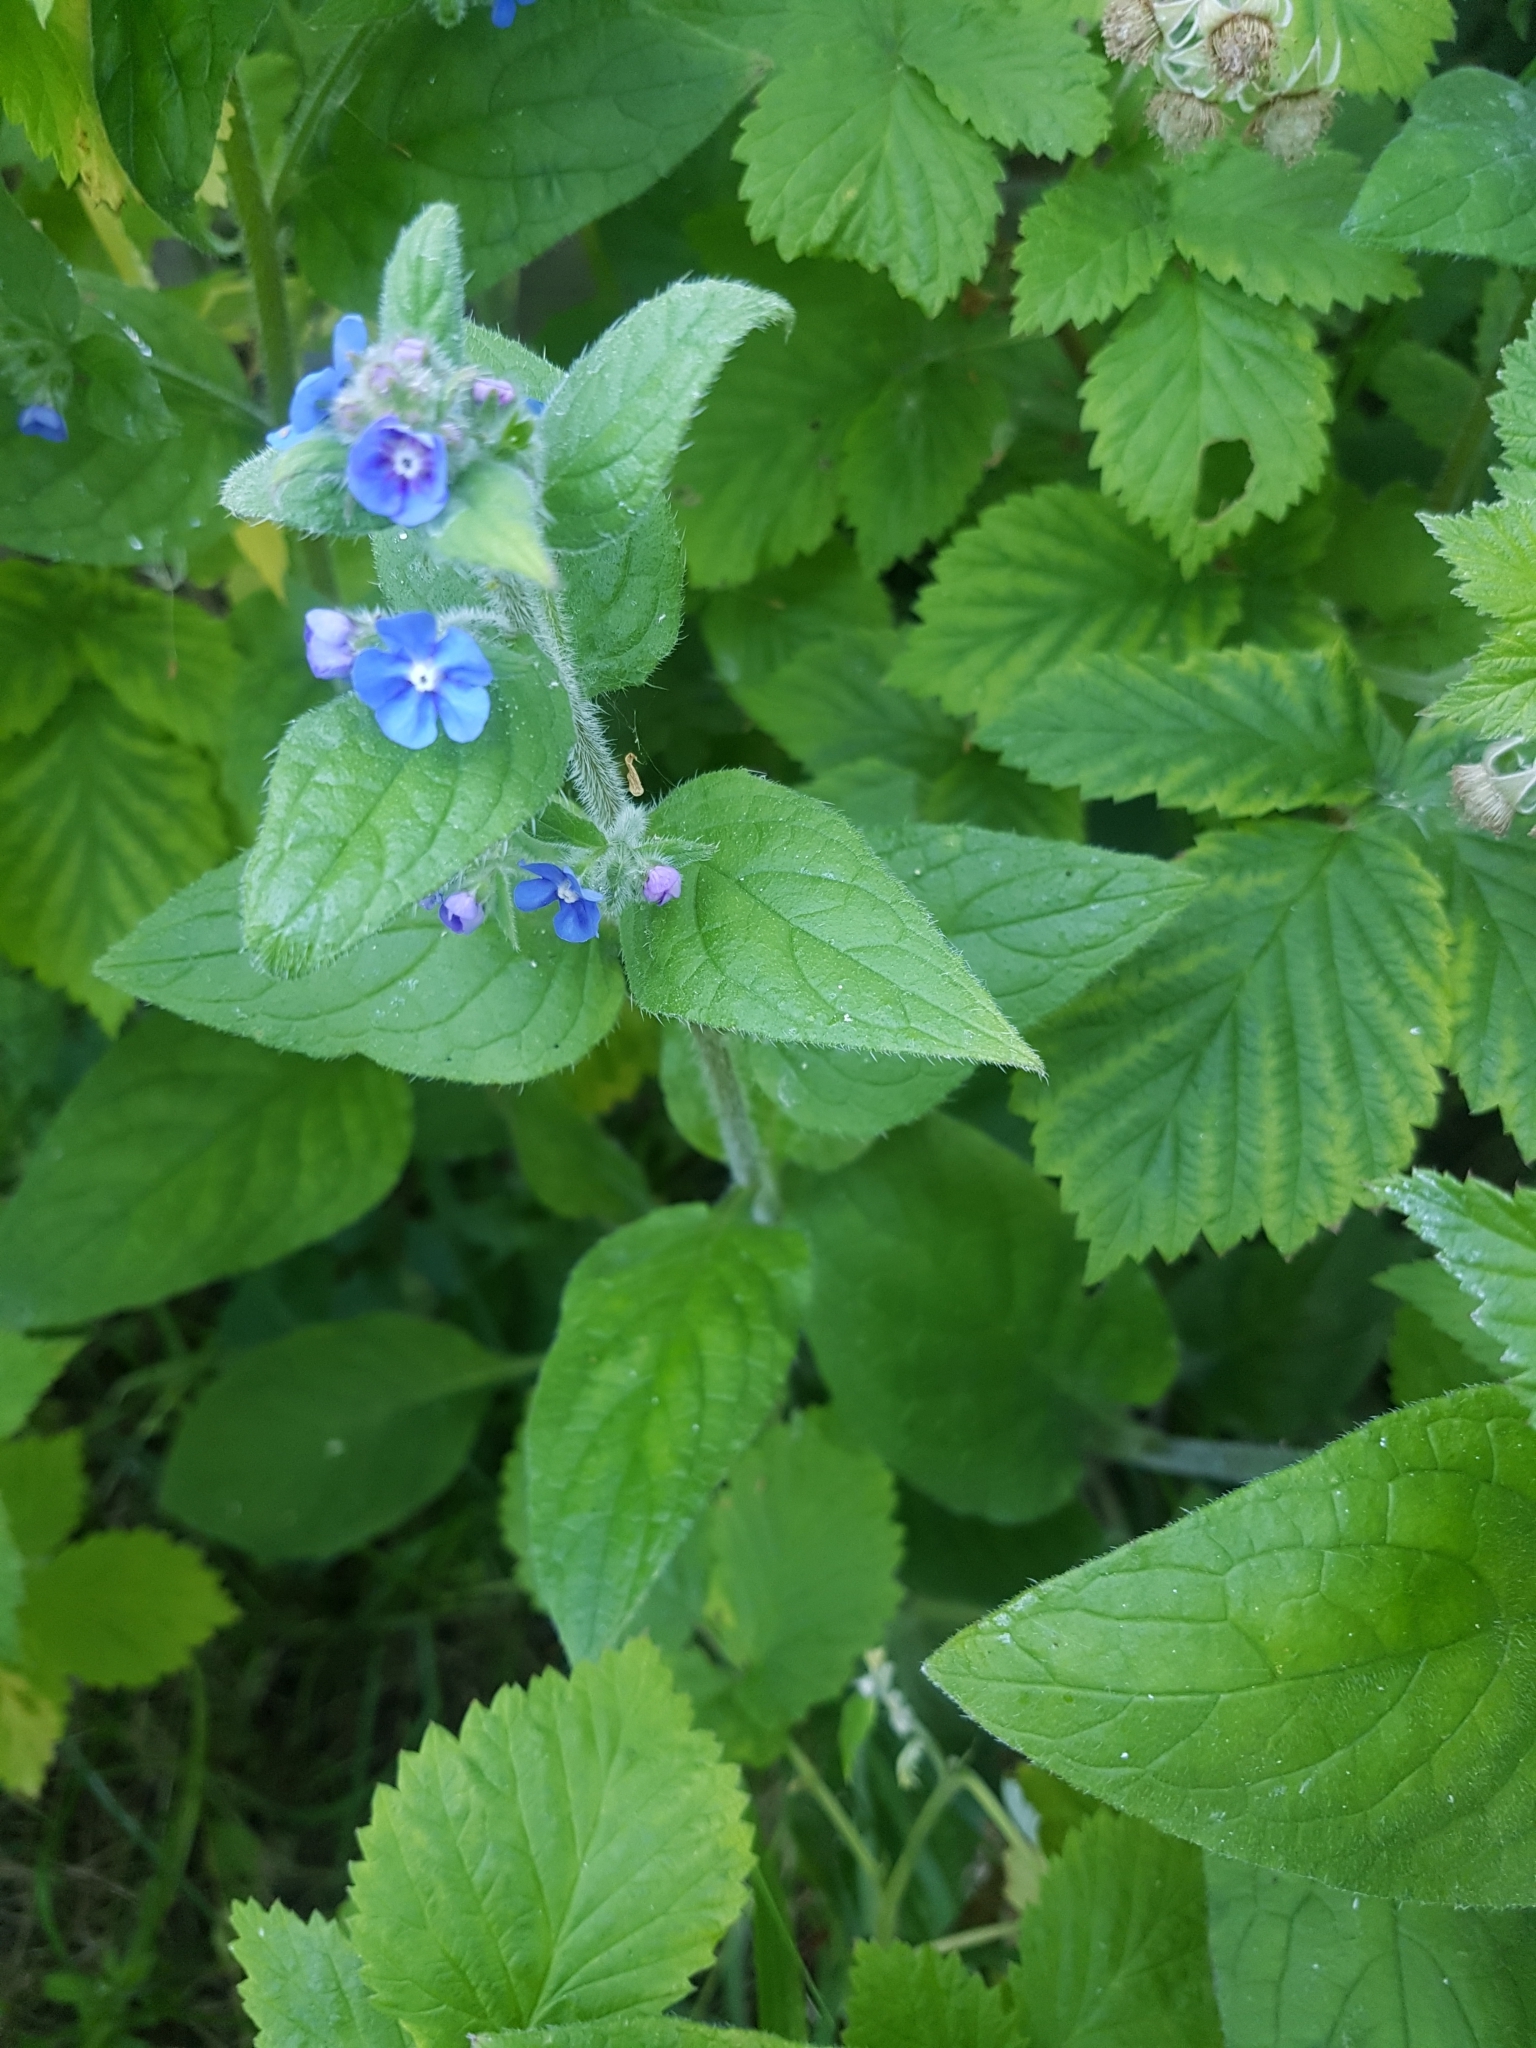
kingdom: Plantae
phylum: Tracheophyta
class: Magnoliopsida
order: Boraginales
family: Boraginaceae
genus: Pentaglottis
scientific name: Pentaglottis sempervirens
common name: Green alkanet
